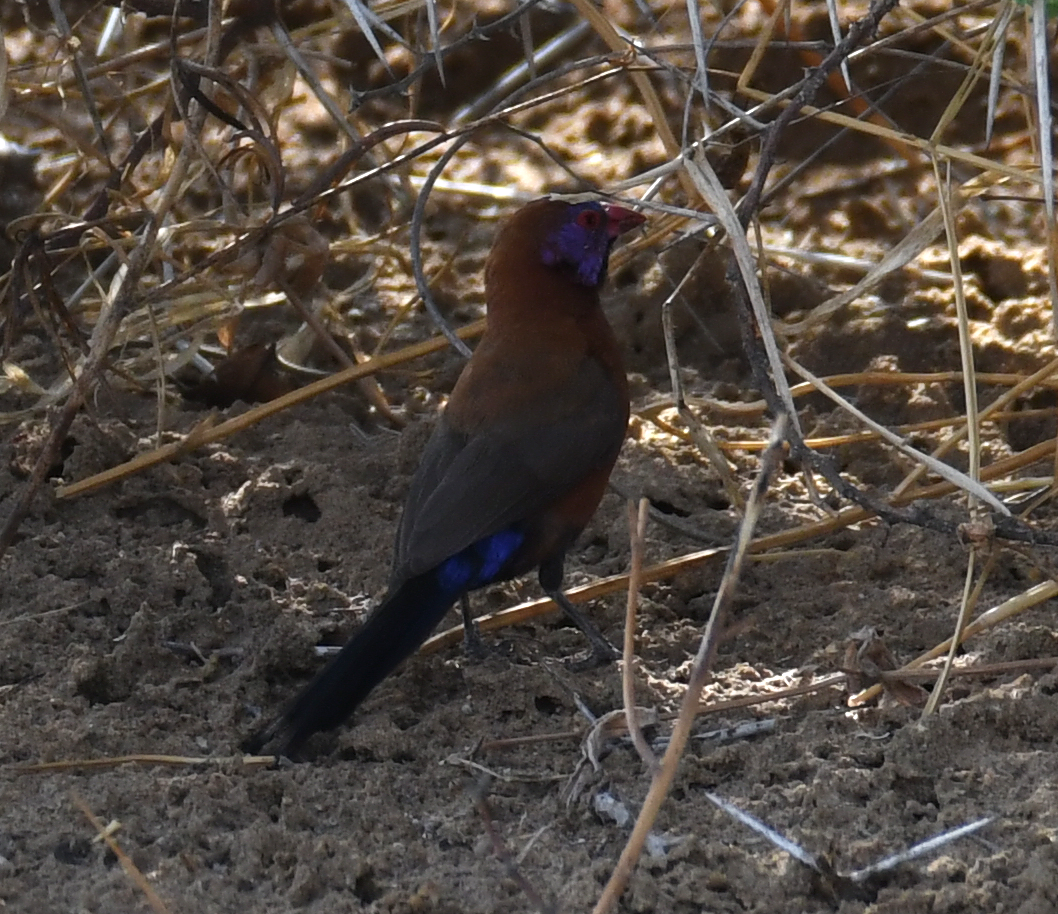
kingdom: Animalia
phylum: Chordata
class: Aves
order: Passeriformes
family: Estrildidae
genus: Uraeginthus
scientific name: Uraeginthus granatinus
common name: Violet-eared waxbill
